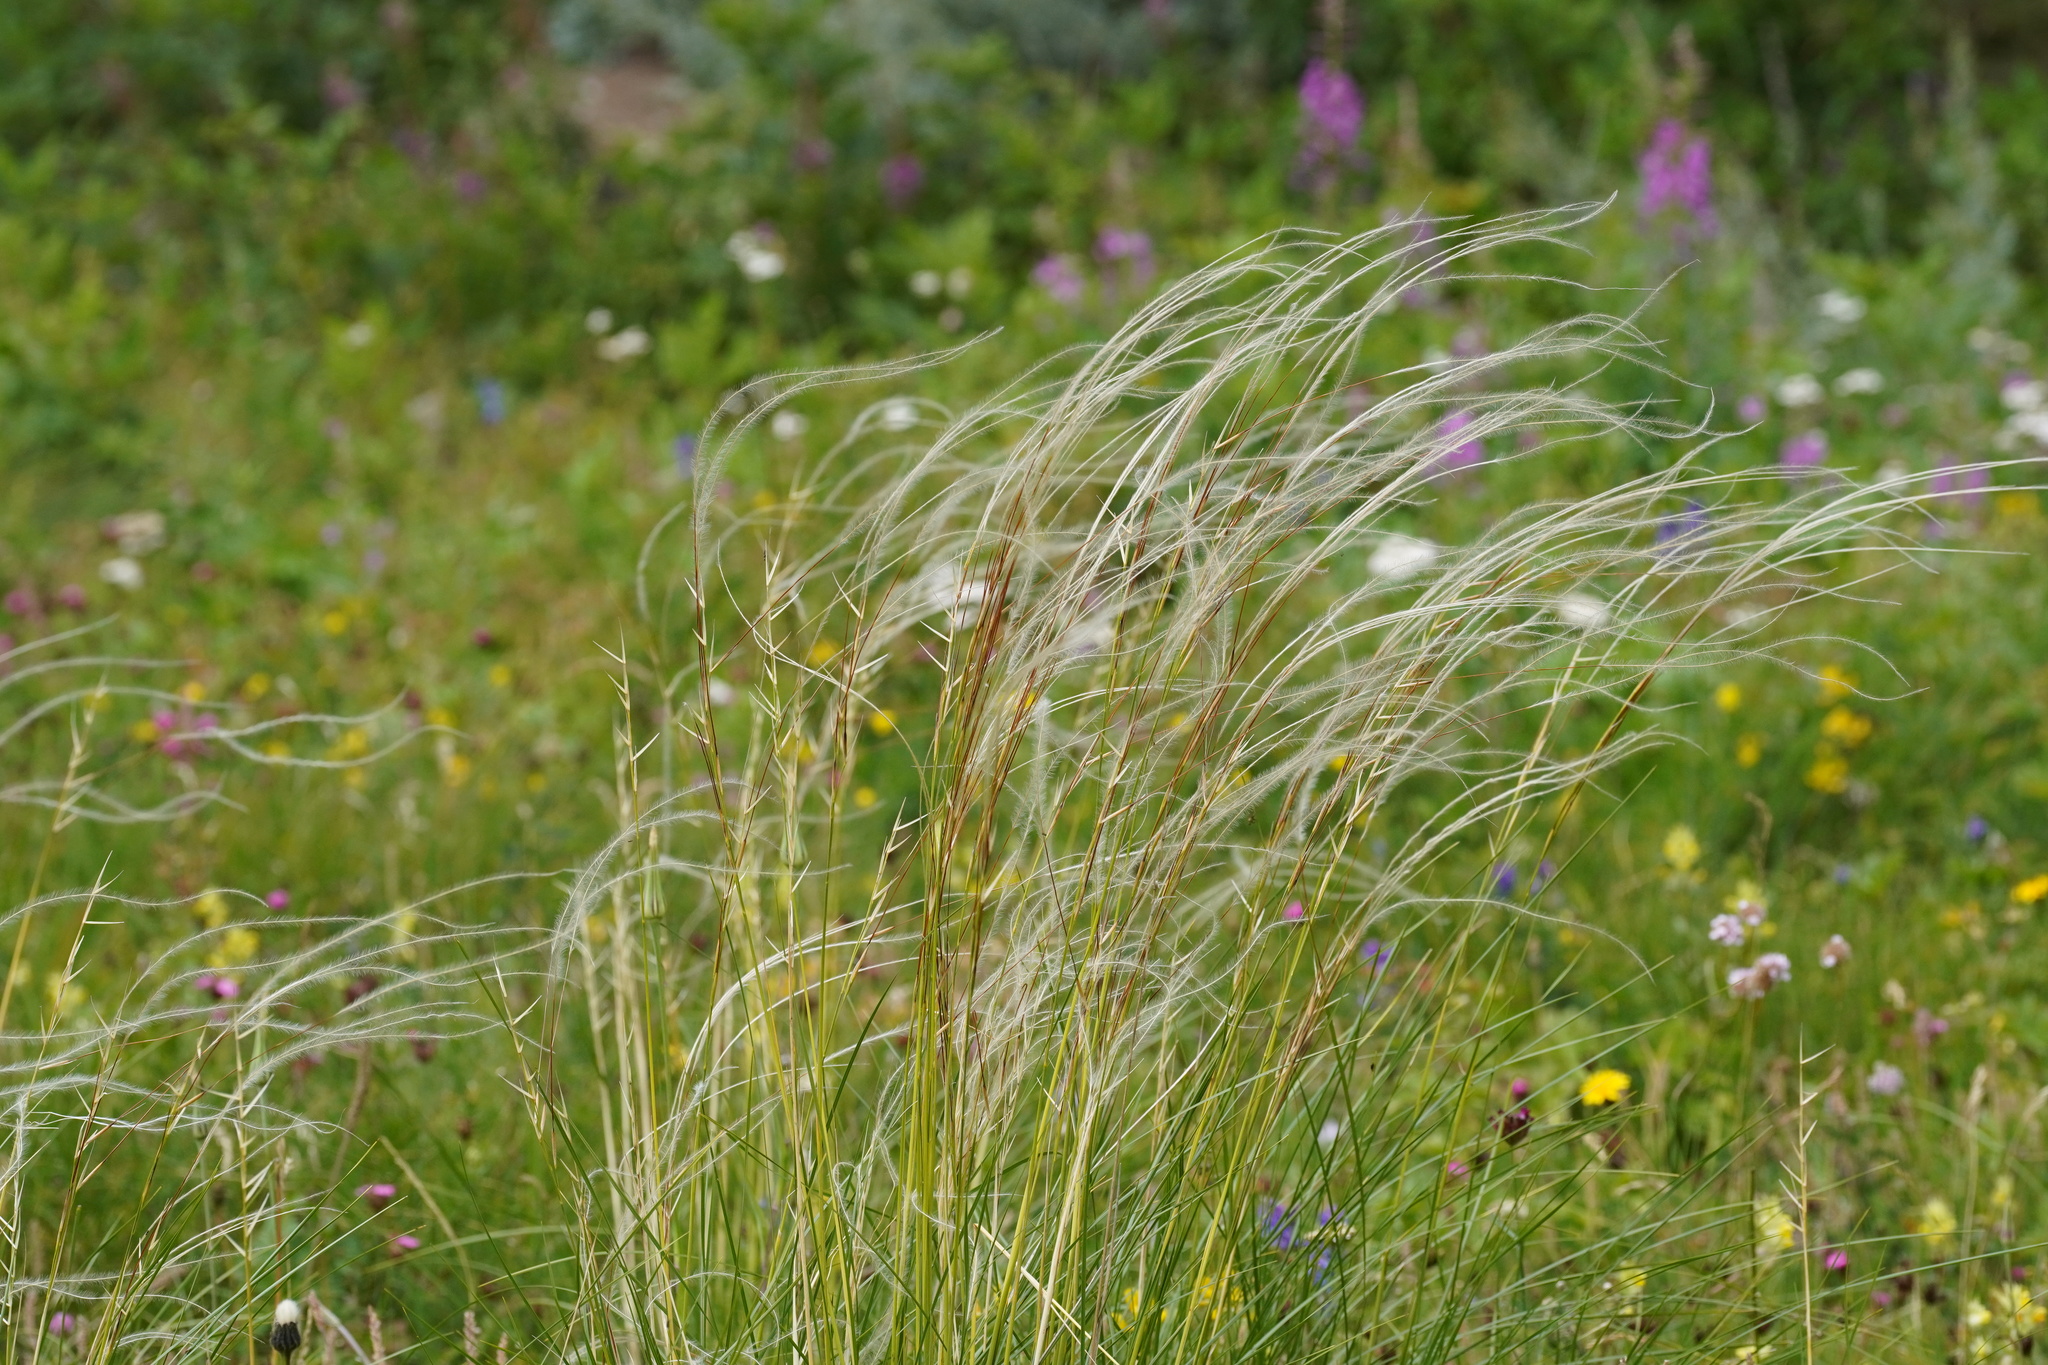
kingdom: Plantae
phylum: Tracheophyta
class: Liliopsida
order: Poales
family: Poaceae
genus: Stipa
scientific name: Stipa pennata
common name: European feather grass
